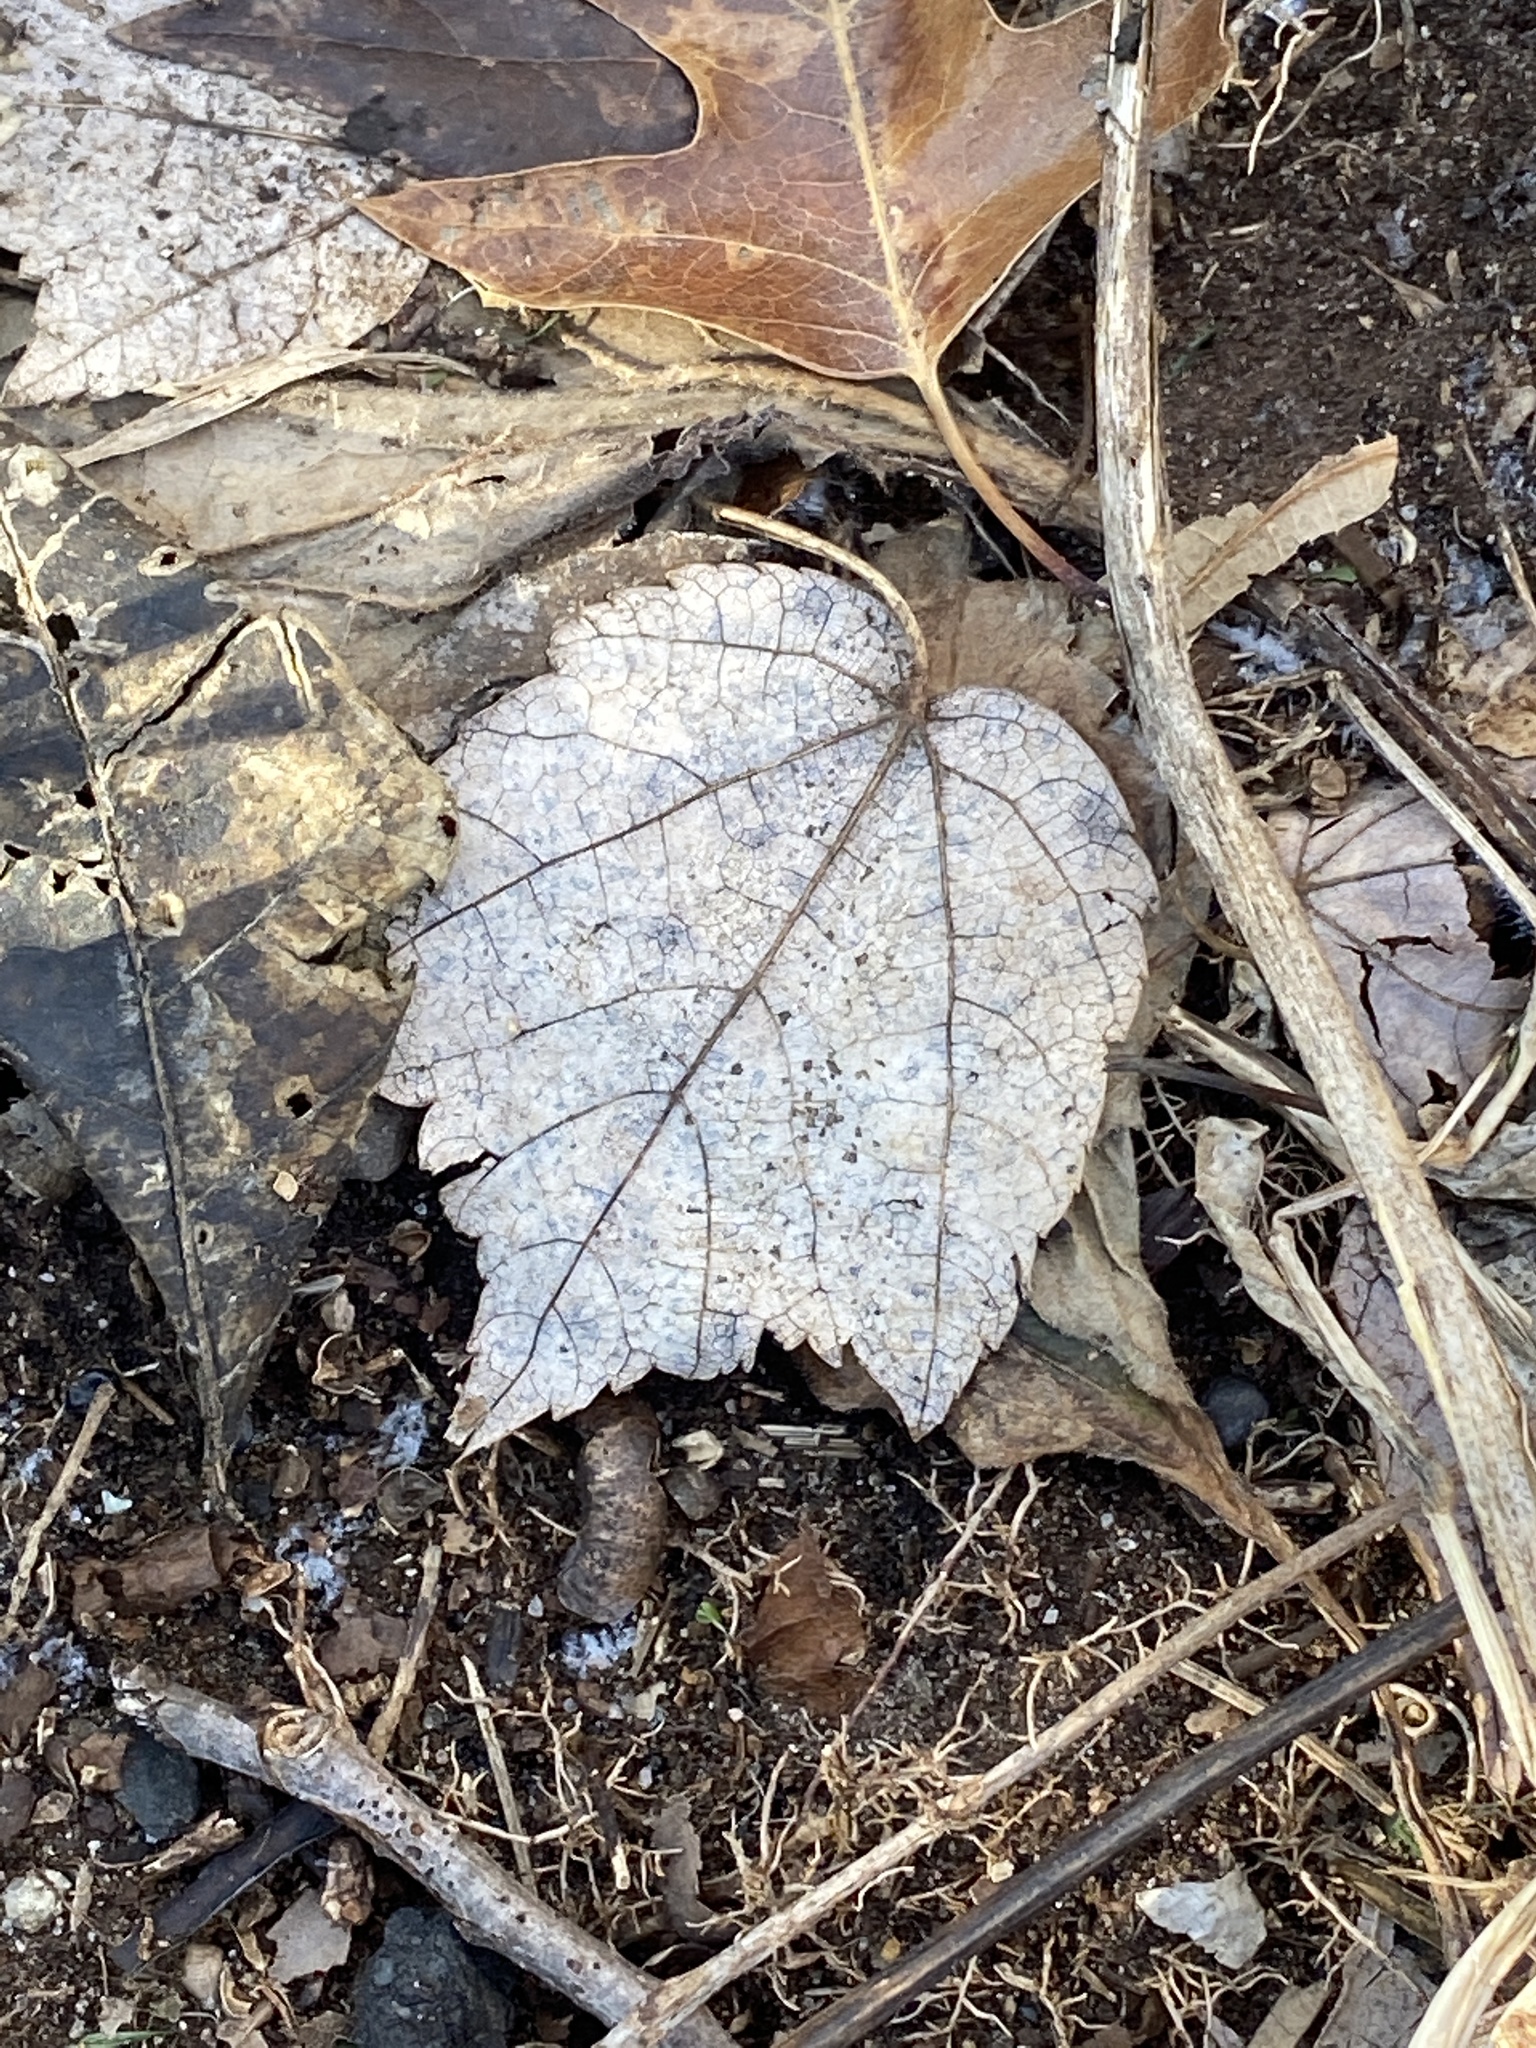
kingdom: Plantae
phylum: Tracheophyta
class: Magnoliopsida
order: Sapindales
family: Sapindaceae
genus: Acer
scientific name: Acer rubrum
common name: Red maple
